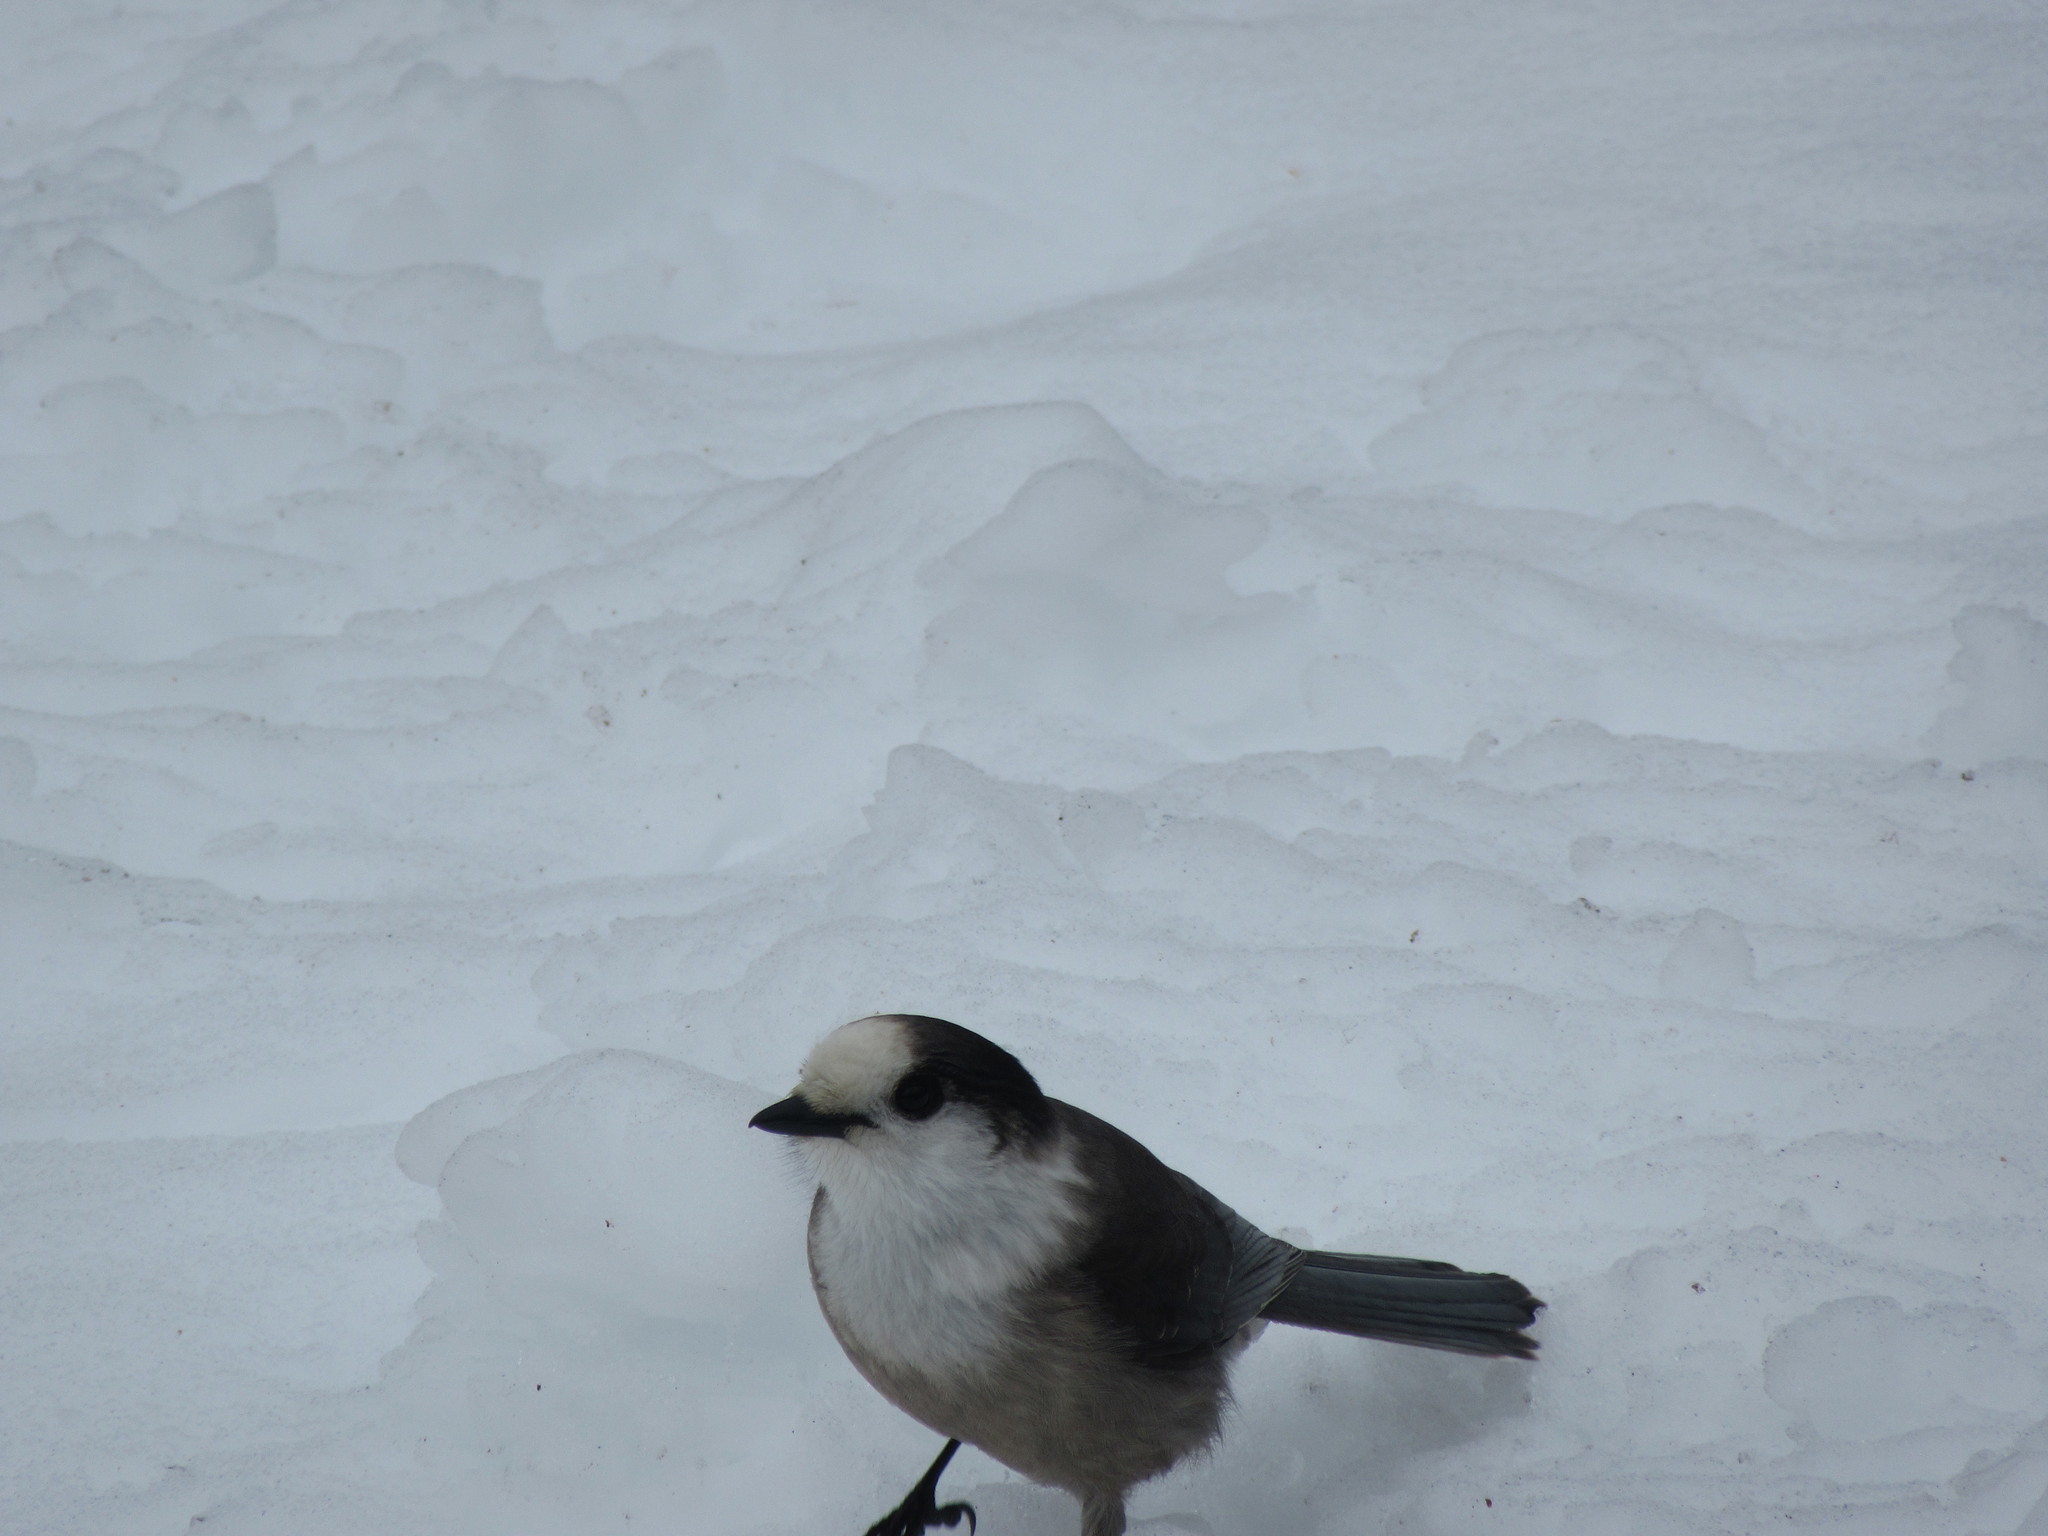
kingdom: Animalia
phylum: Chordata
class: Aves
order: Passeriformes
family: Corvidae
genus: Perisoreus
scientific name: Perisoreus canadensis
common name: Gray jay
